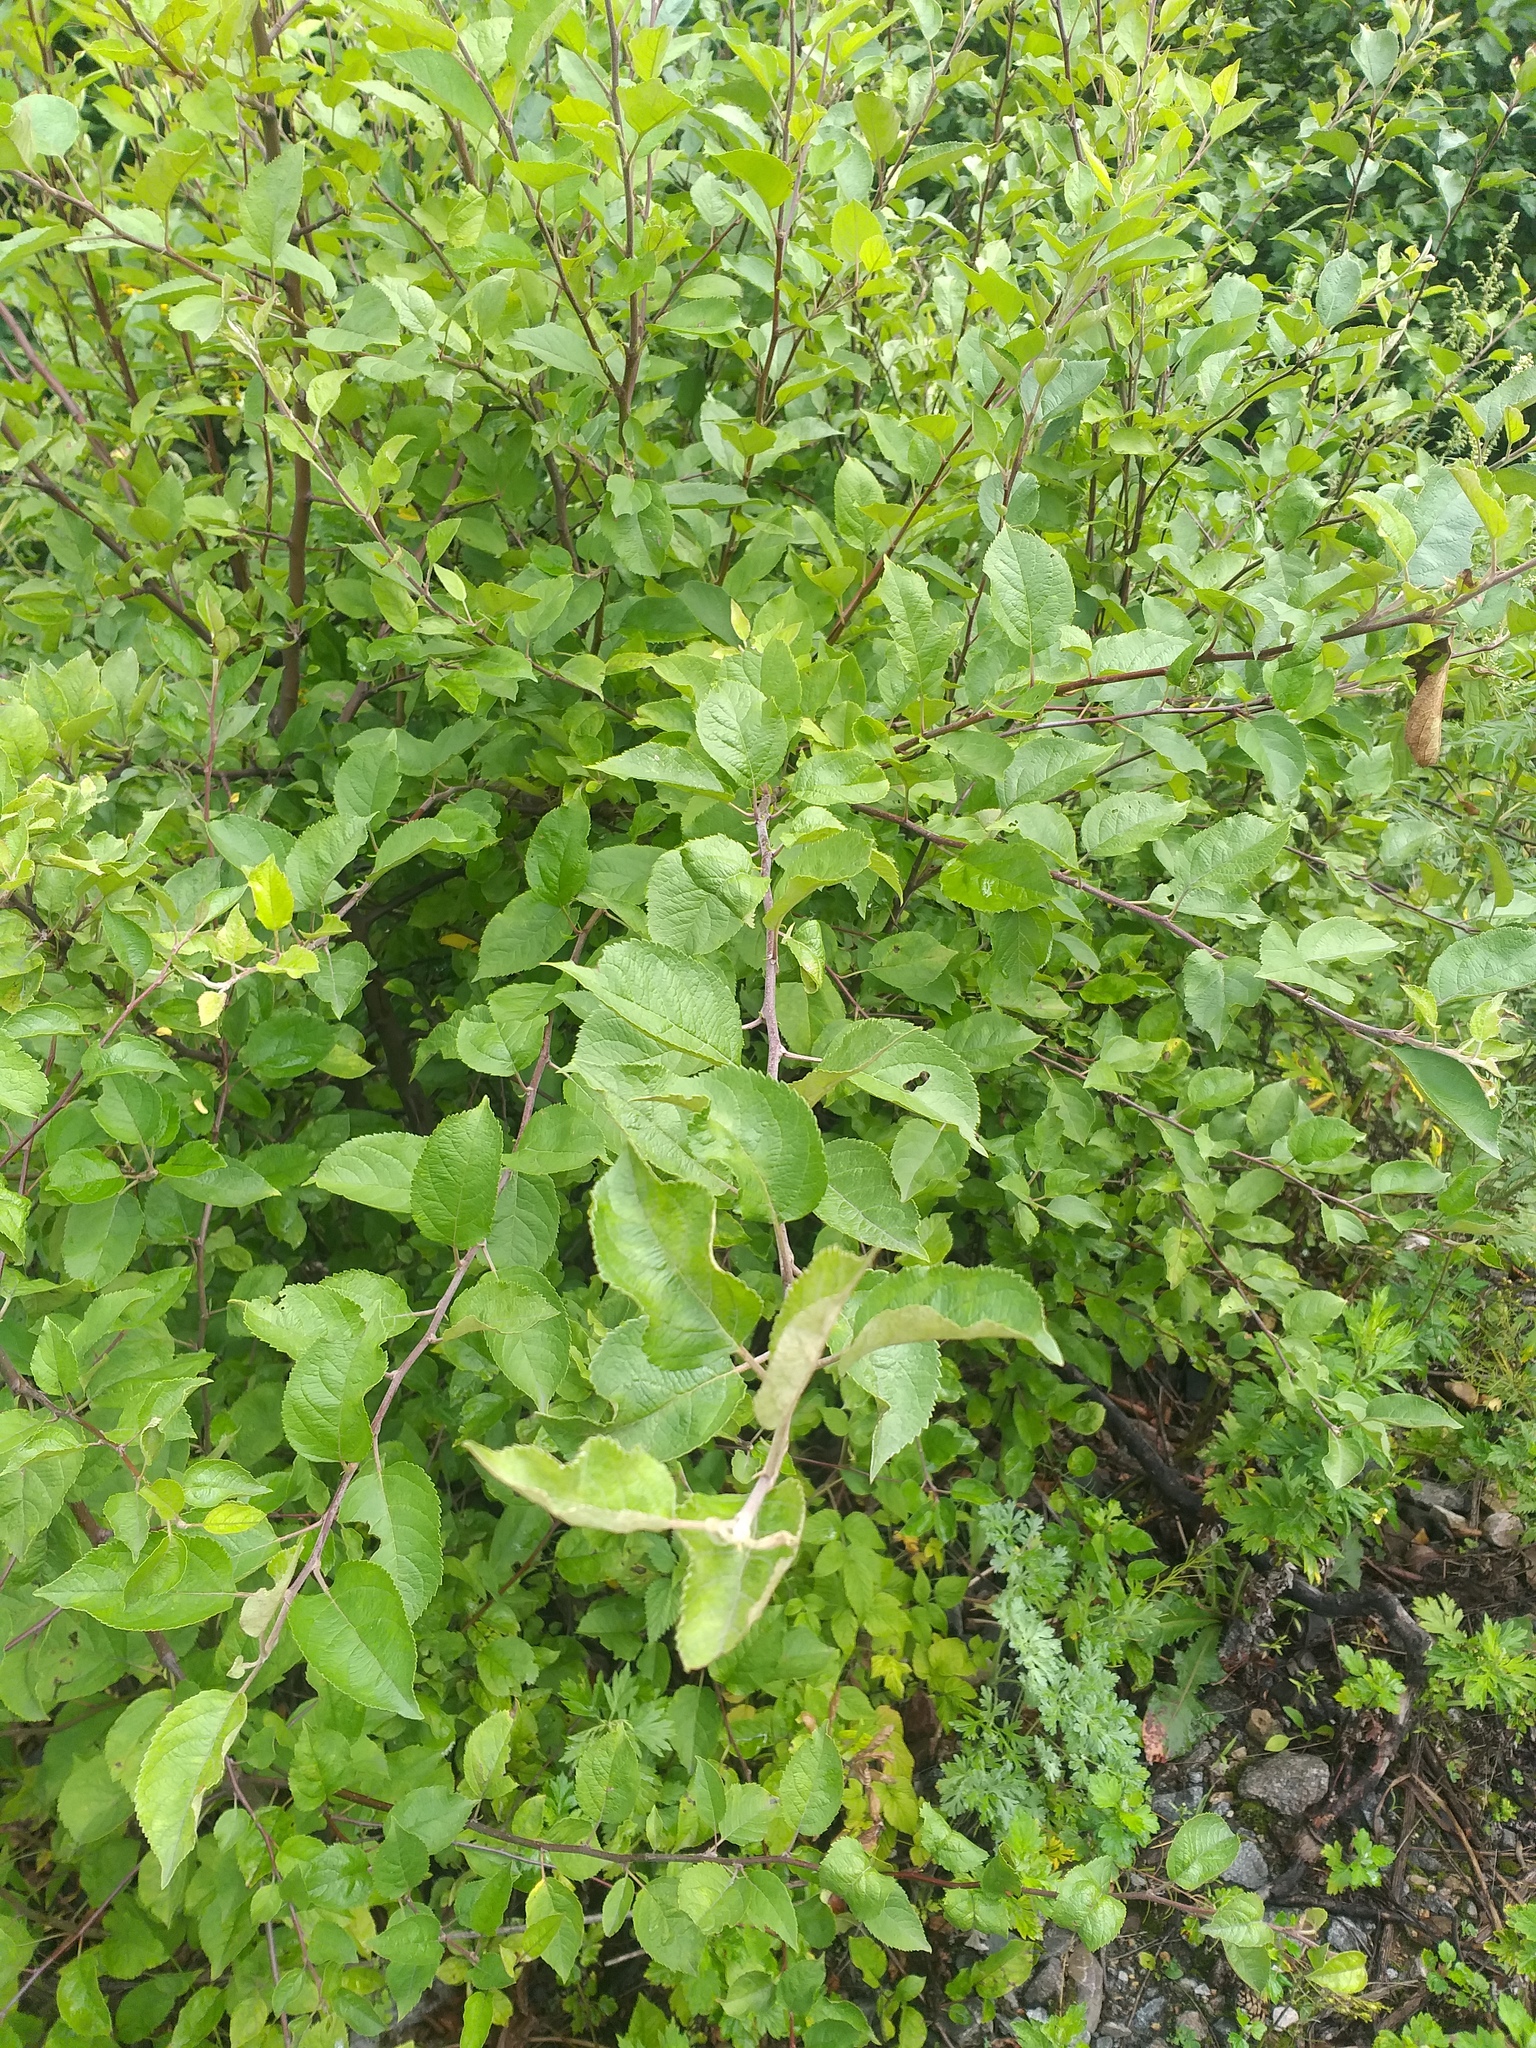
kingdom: Plantae
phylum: Tracheophyta
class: Magnoliopsida
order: Rosales
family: Rosaceae
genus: Malus
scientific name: Malus domestica
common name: Apple
